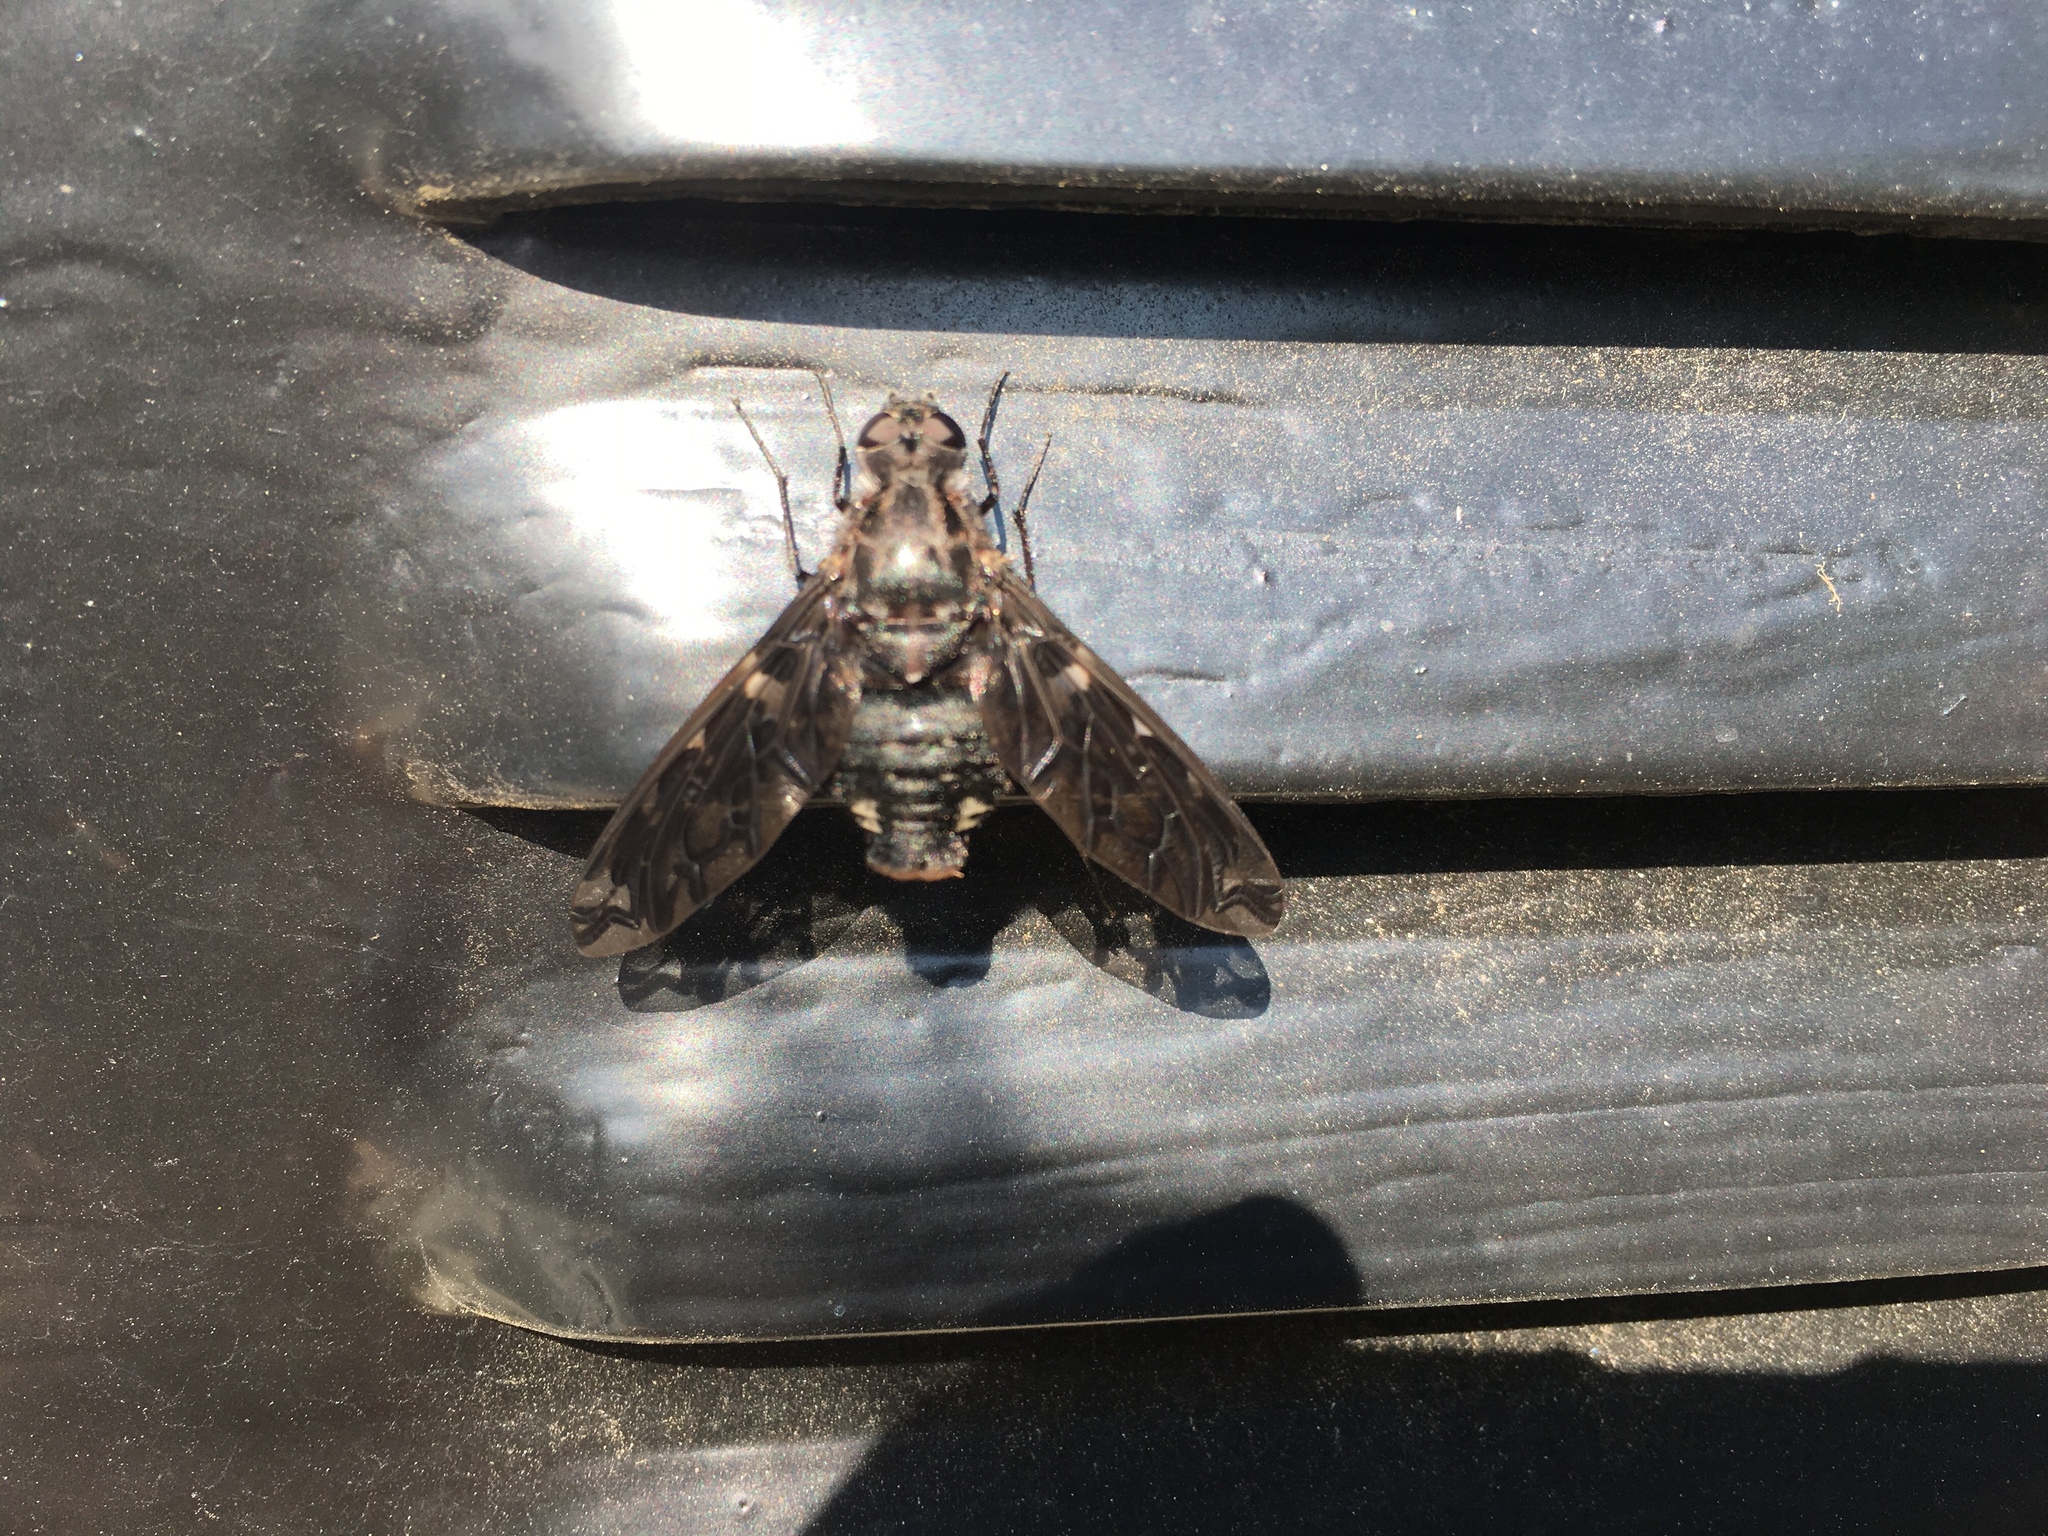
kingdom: Animalia
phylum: Arthropoda
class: Insecta
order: Diptera
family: Bombyliidae
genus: Xenox
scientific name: Xenox tigrinus
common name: Tiger bee fly
